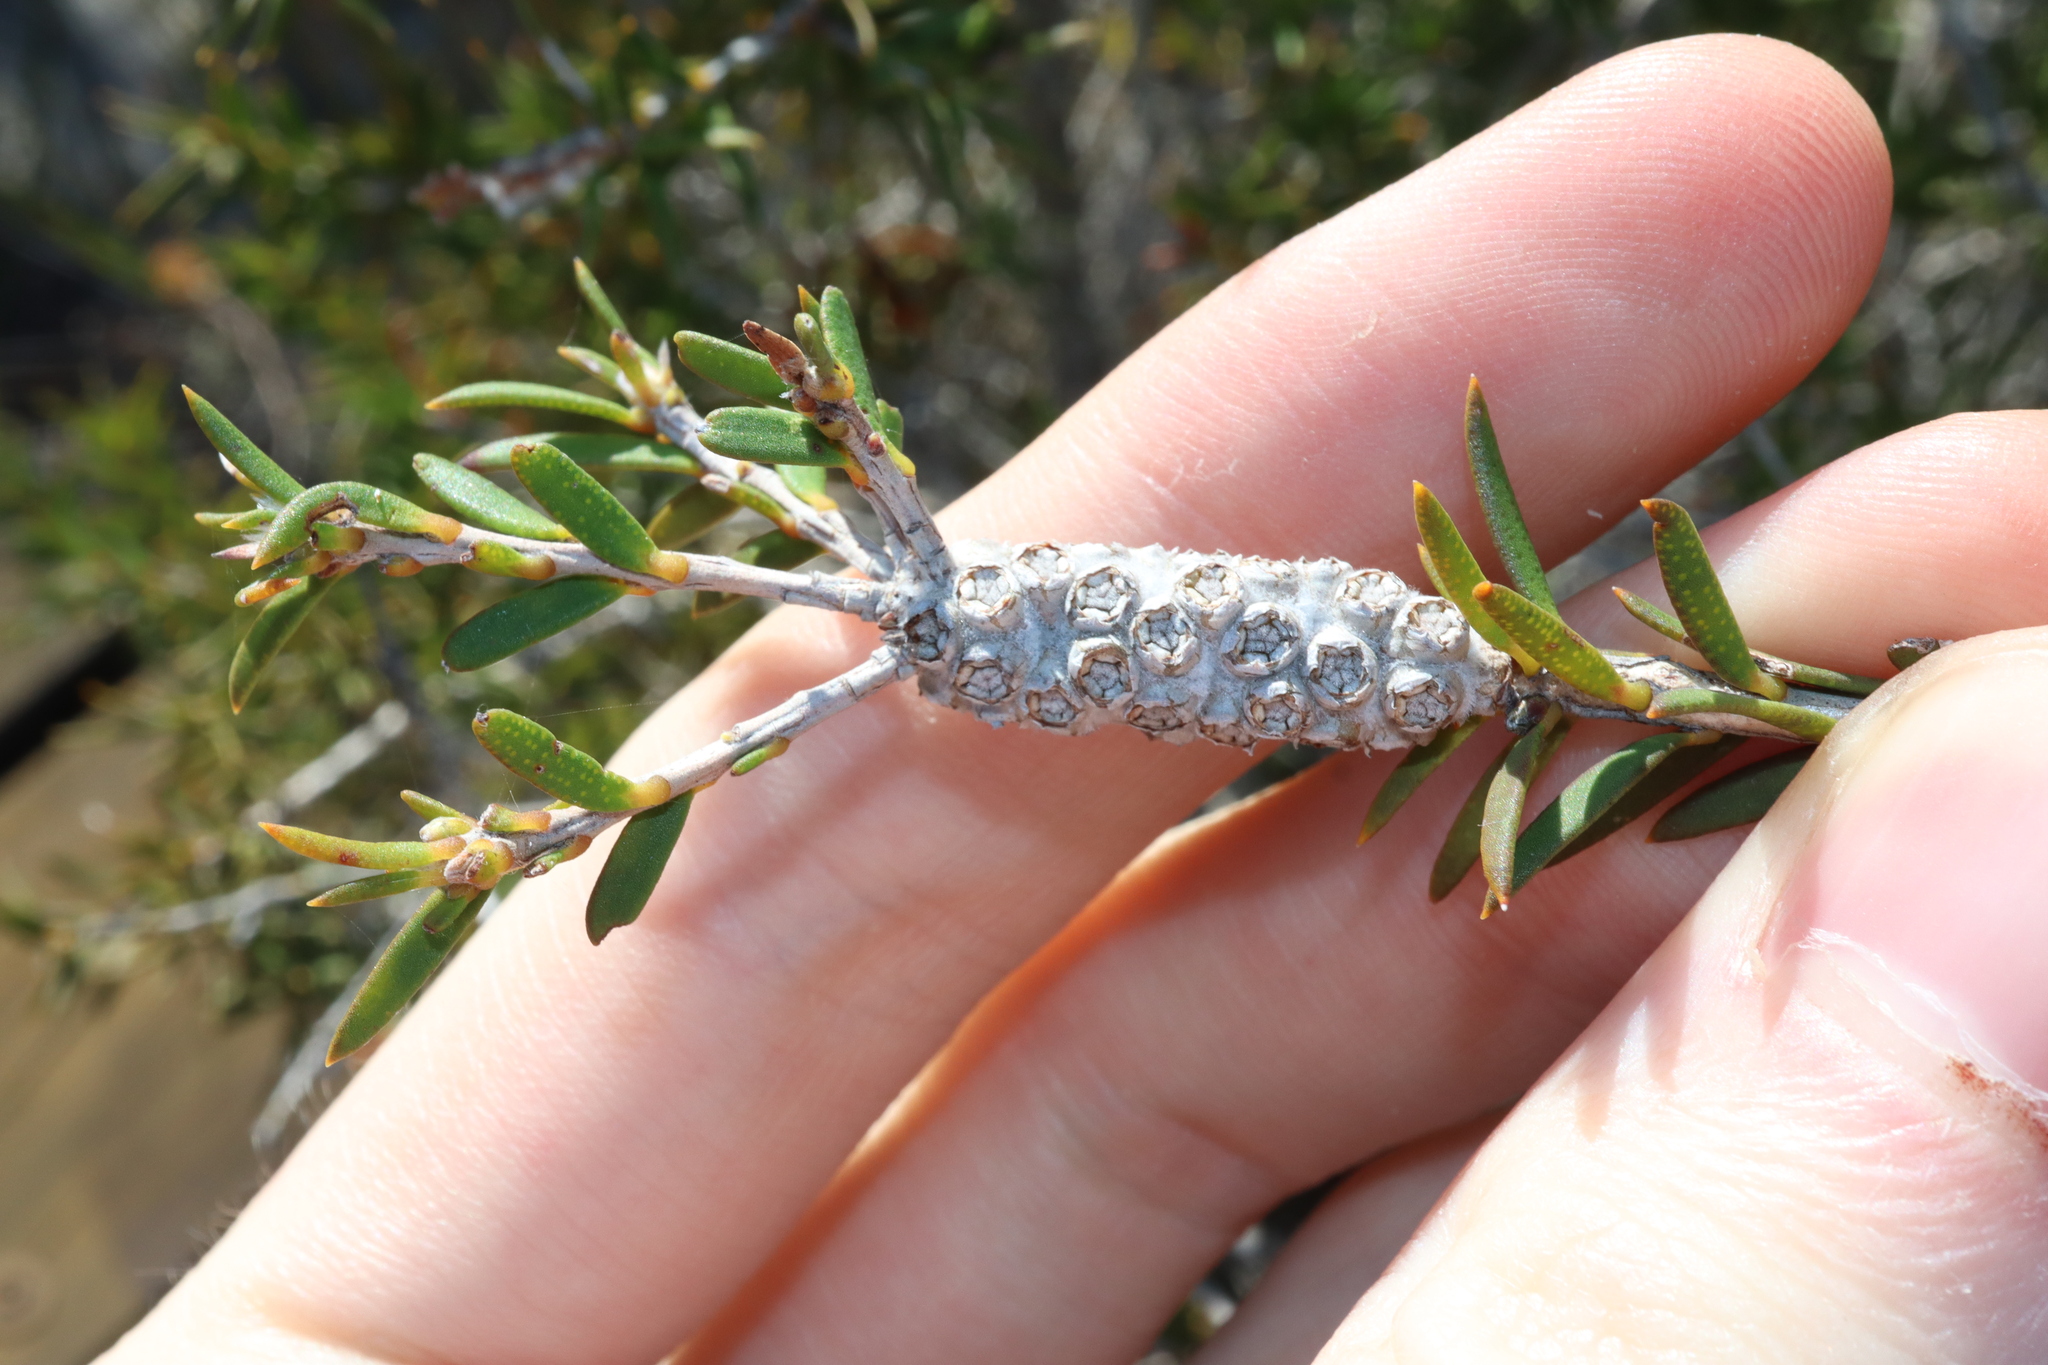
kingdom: Plantae
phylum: Tracheophyta
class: Magnoliopsida
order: Myrtales
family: Myrtaceae
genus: Melaleuca
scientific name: Melaleuca striata
